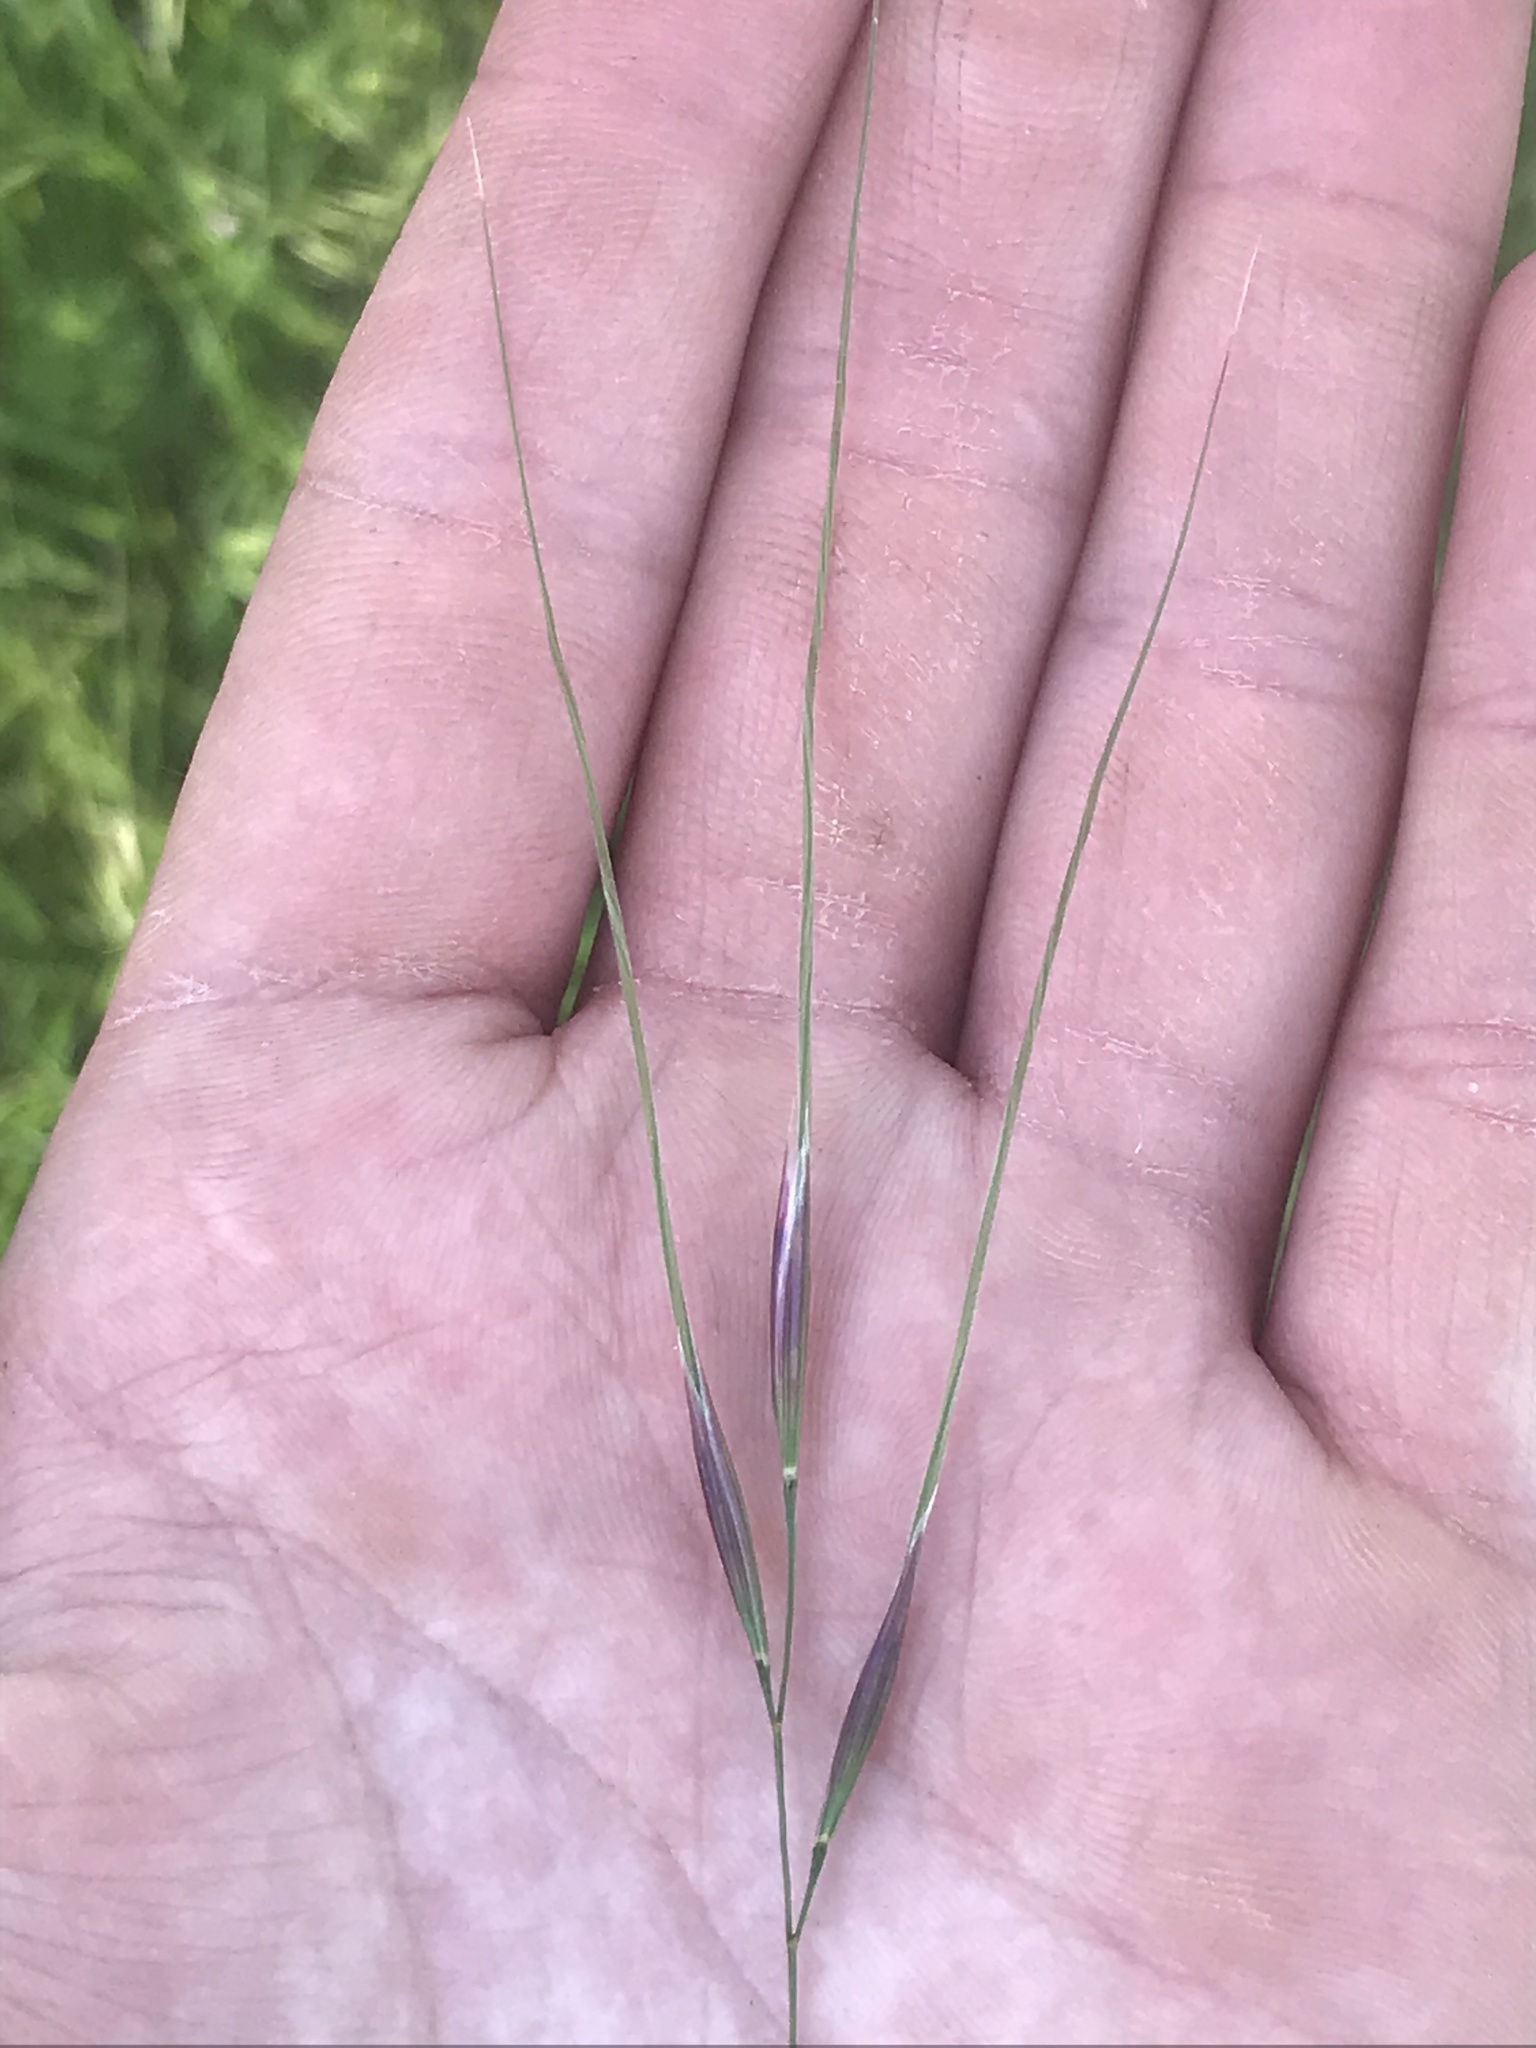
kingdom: Plantae
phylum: Tracheophyta
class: Liliopsida
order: Poales
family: Poaceae
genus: Nassella
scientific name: Nassella leucotricha
